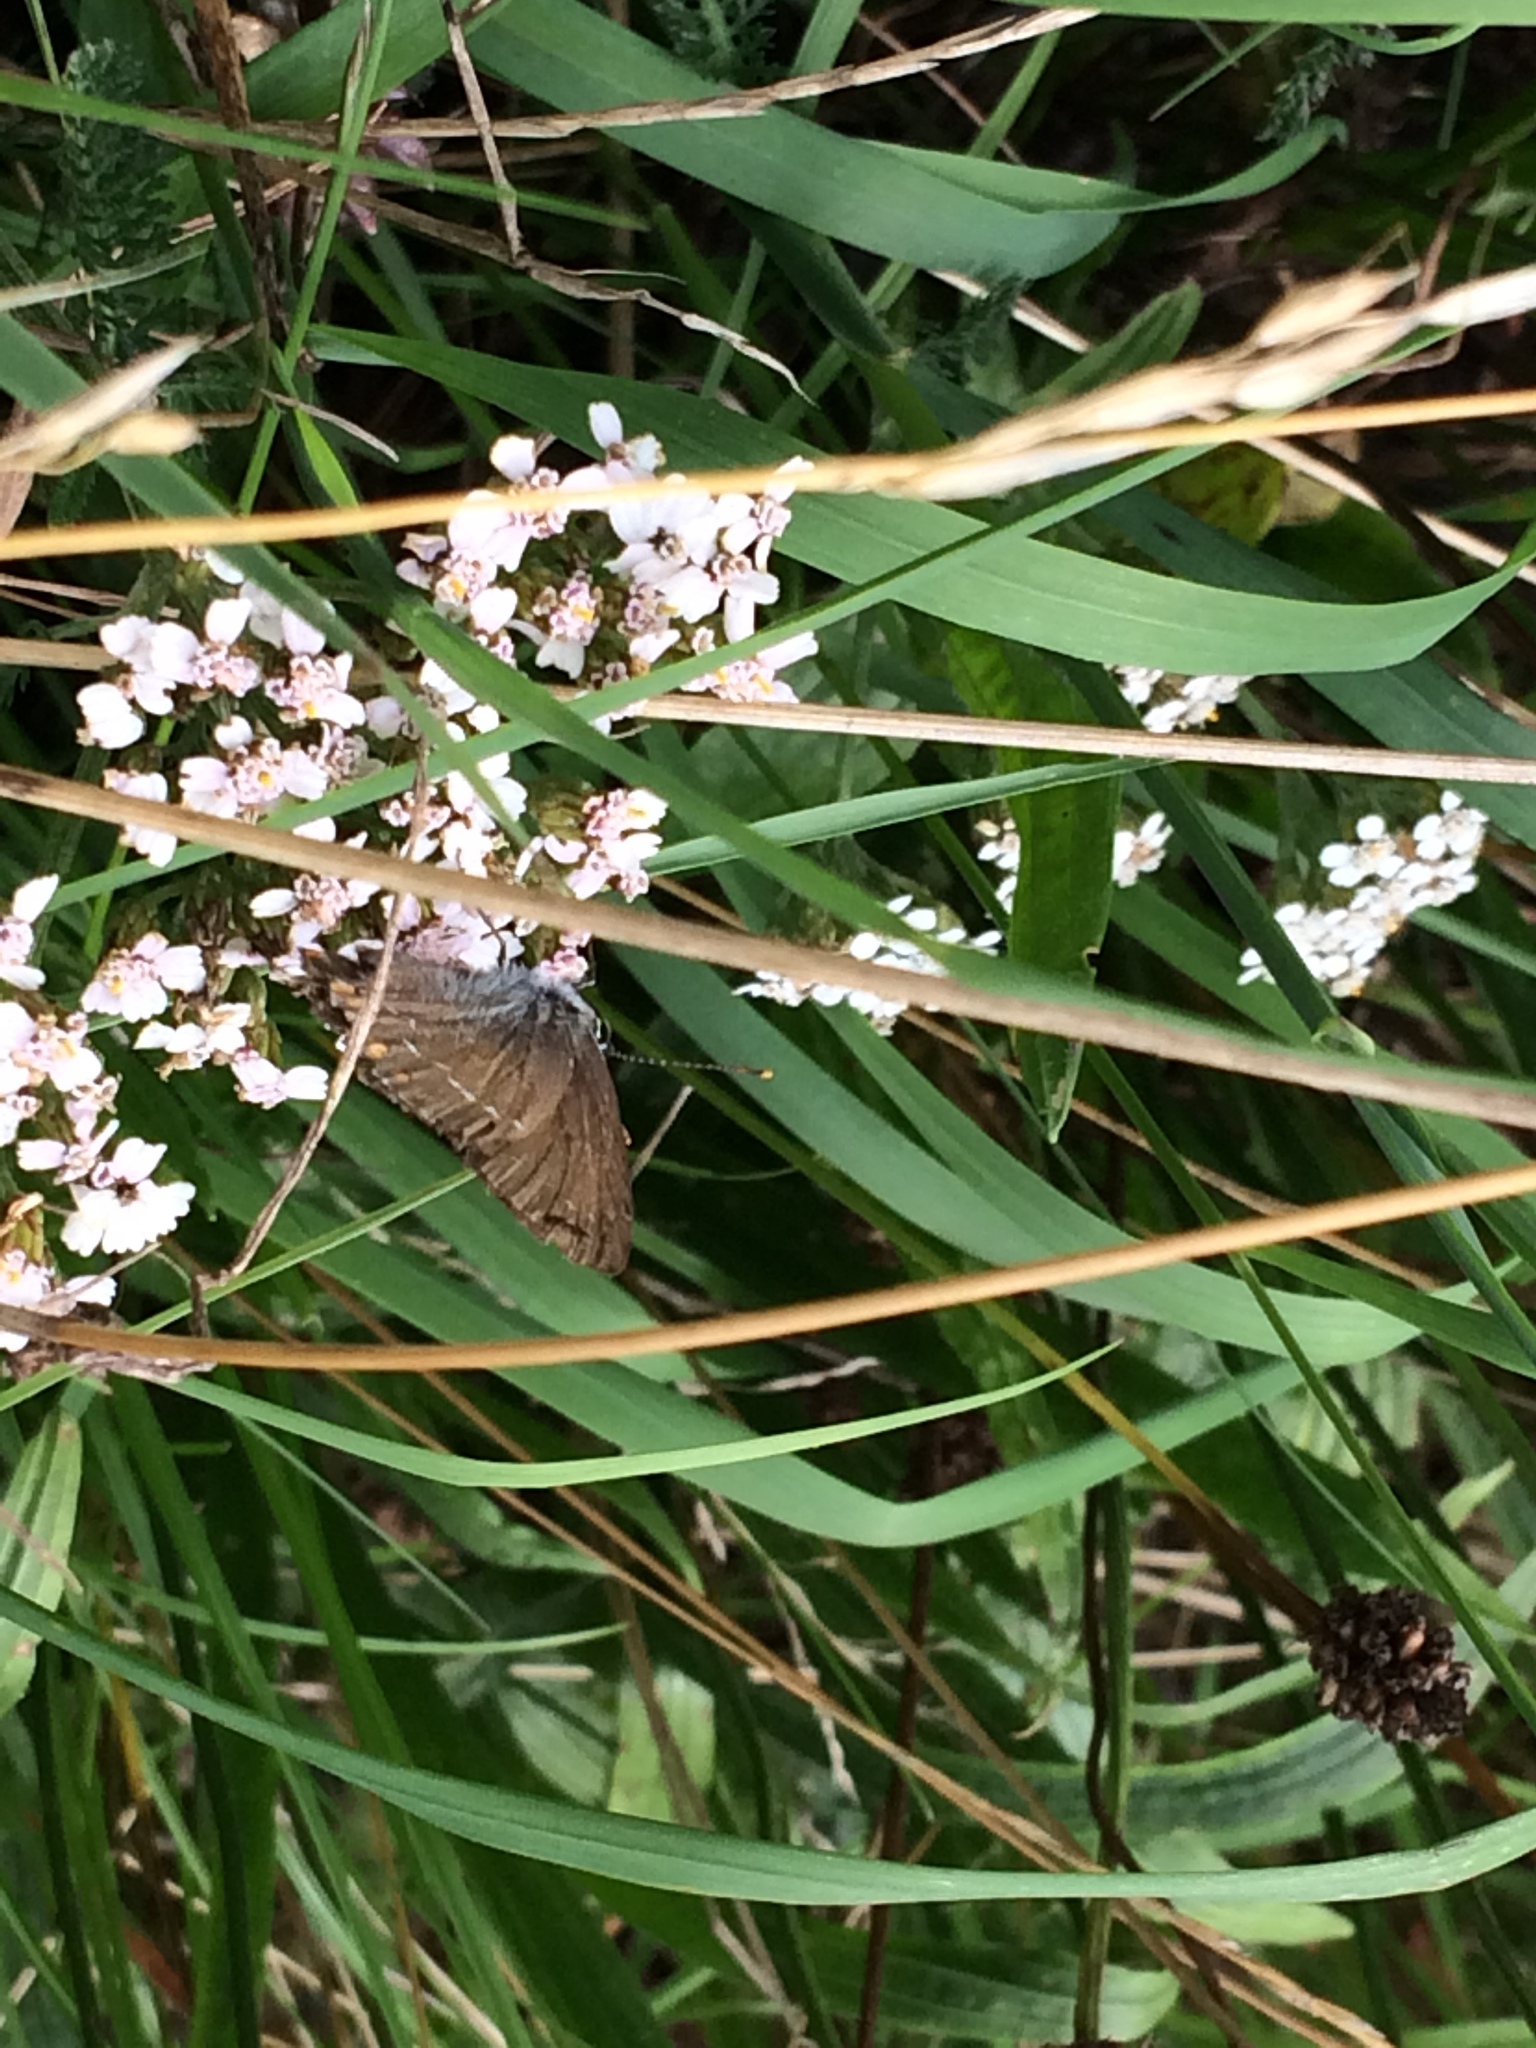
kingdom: Animalia
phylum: Arthropoda
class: Insecta
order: Lepidoptera
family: Lycaenidae
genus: Nordmannia
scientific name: Nordmannia ilicis
